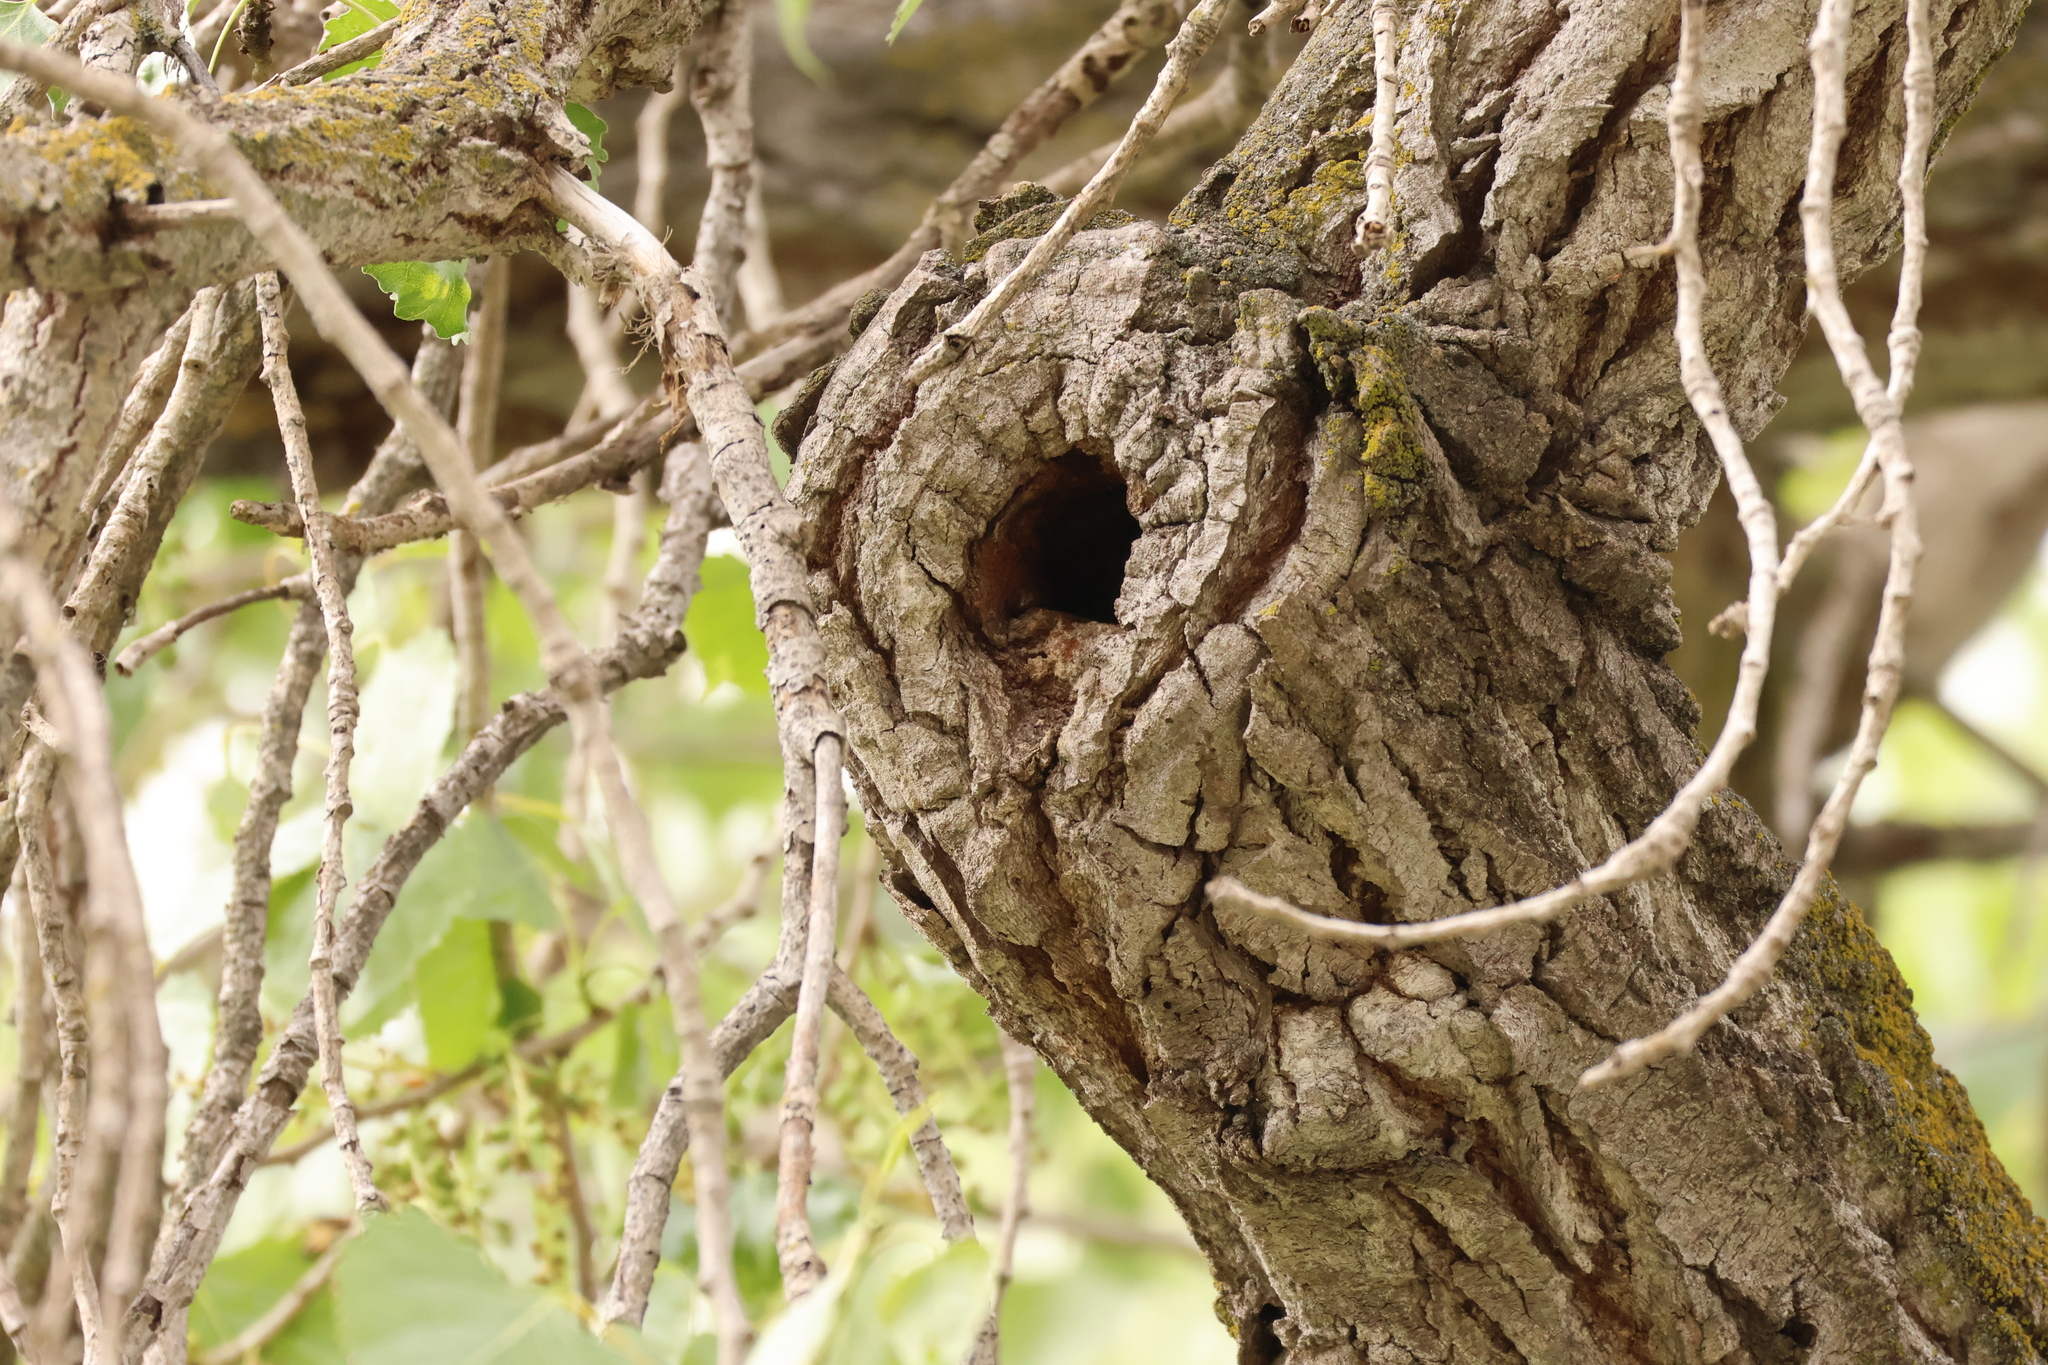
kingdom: Animalia
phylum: Chordata
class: Aves
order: Passeriformes
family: Troglodytidae
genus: Troglodytes
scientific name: Troglodytes aedon
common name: House wren
